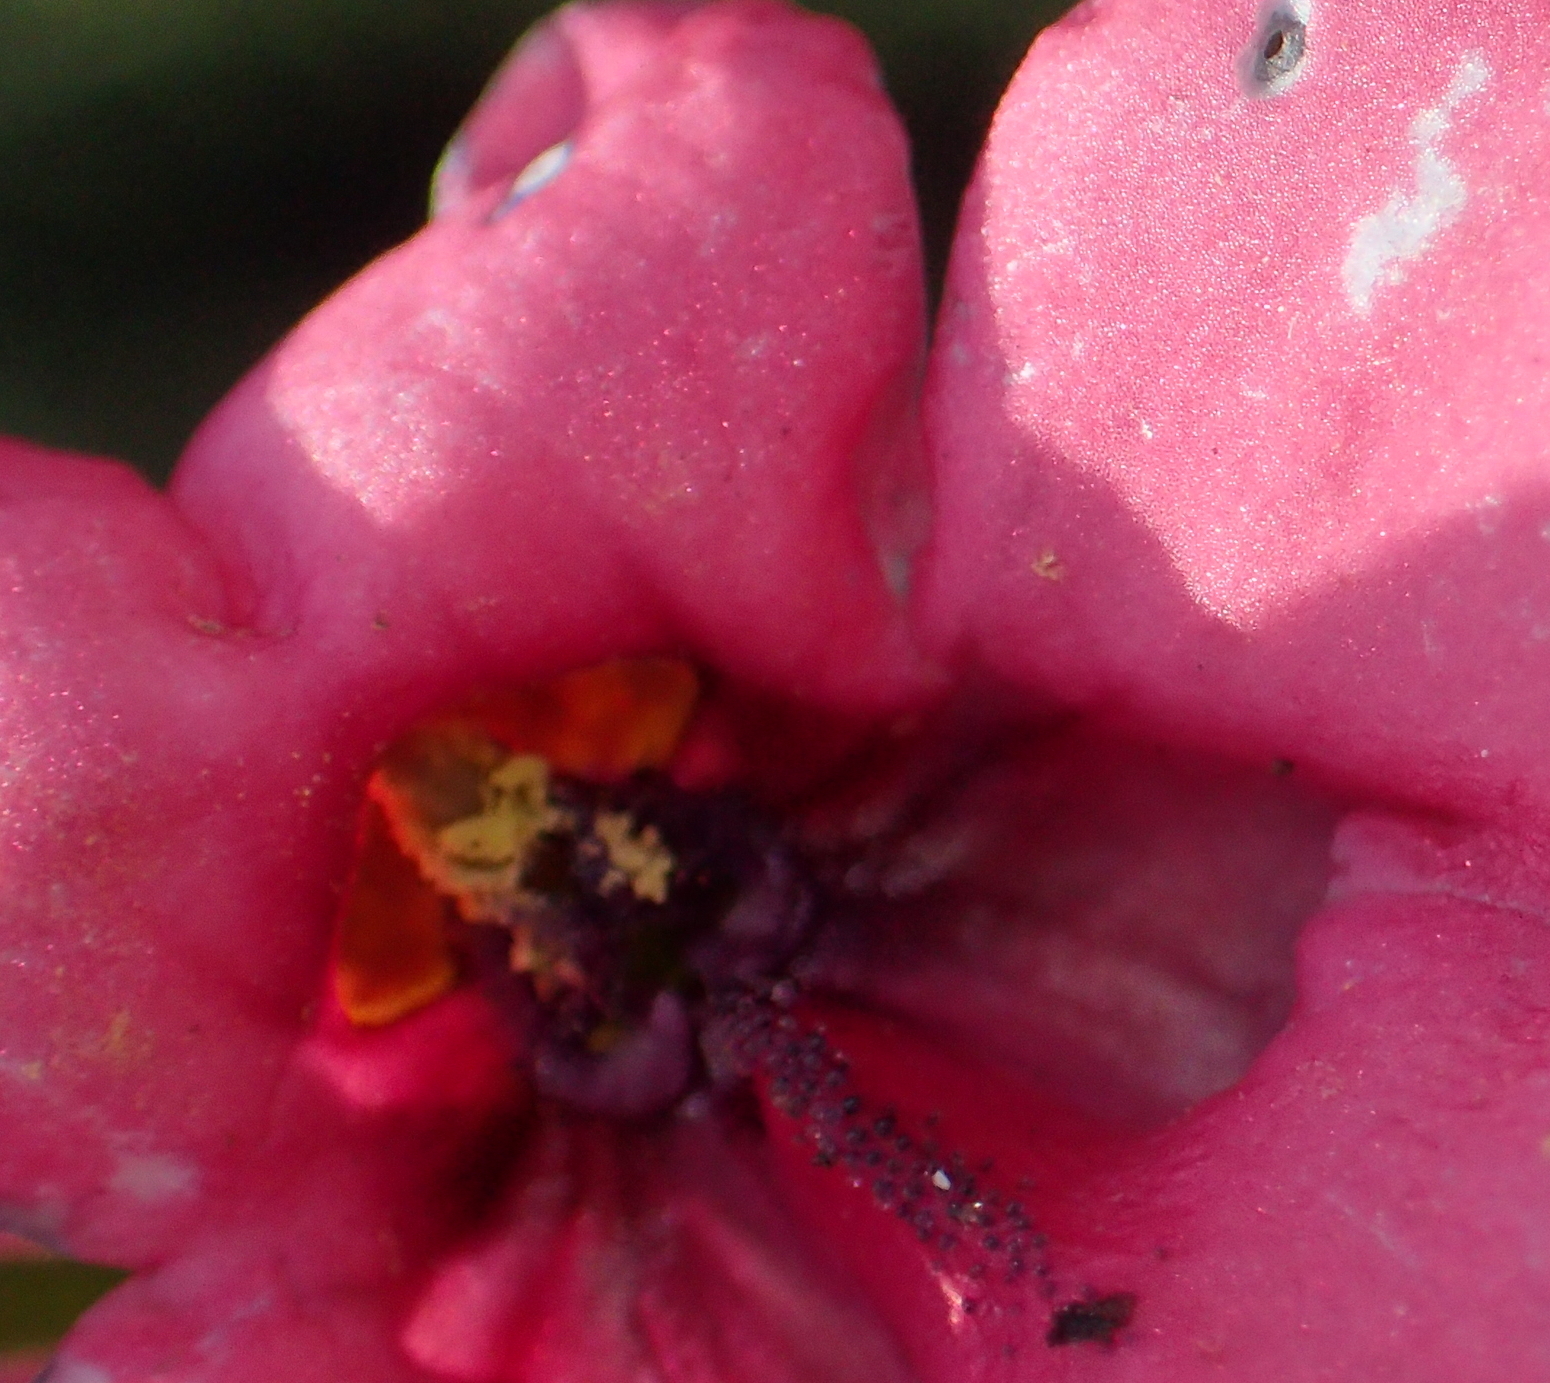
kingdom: Plantae
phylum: Tracheophyta
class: Magnoliopsida
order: Lamiales
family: Scrophulariaceae
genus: Diascia
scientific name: Diascia integerrima
